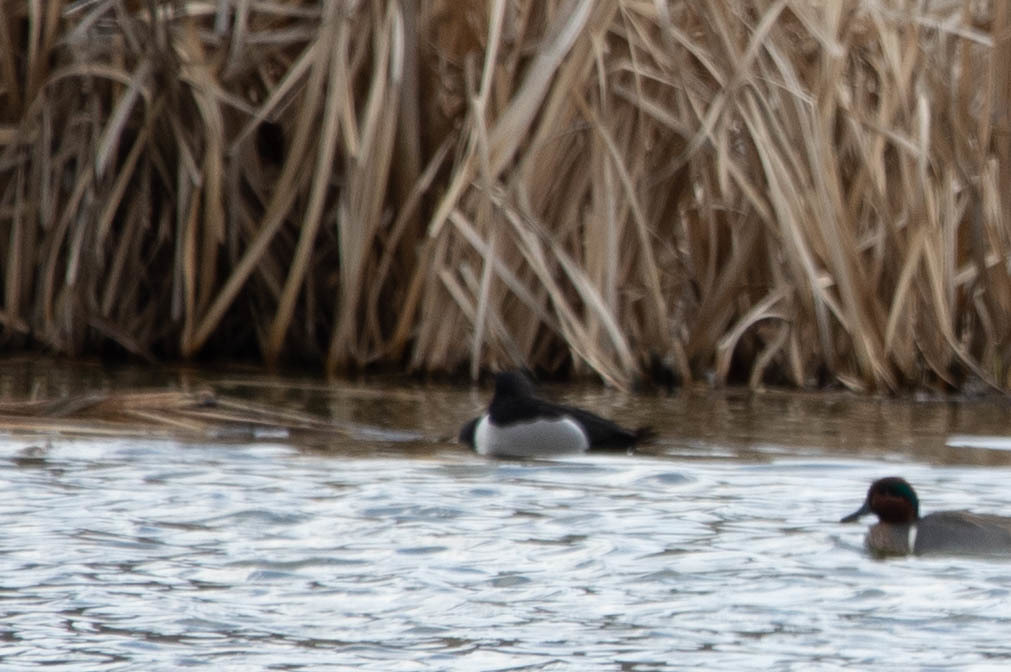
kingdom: Animalia
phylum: Chordata
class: Aves
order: Anseriformes
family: Anatidae
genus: Aythya
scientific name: Aythya collaris
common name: Ring-necked duck
